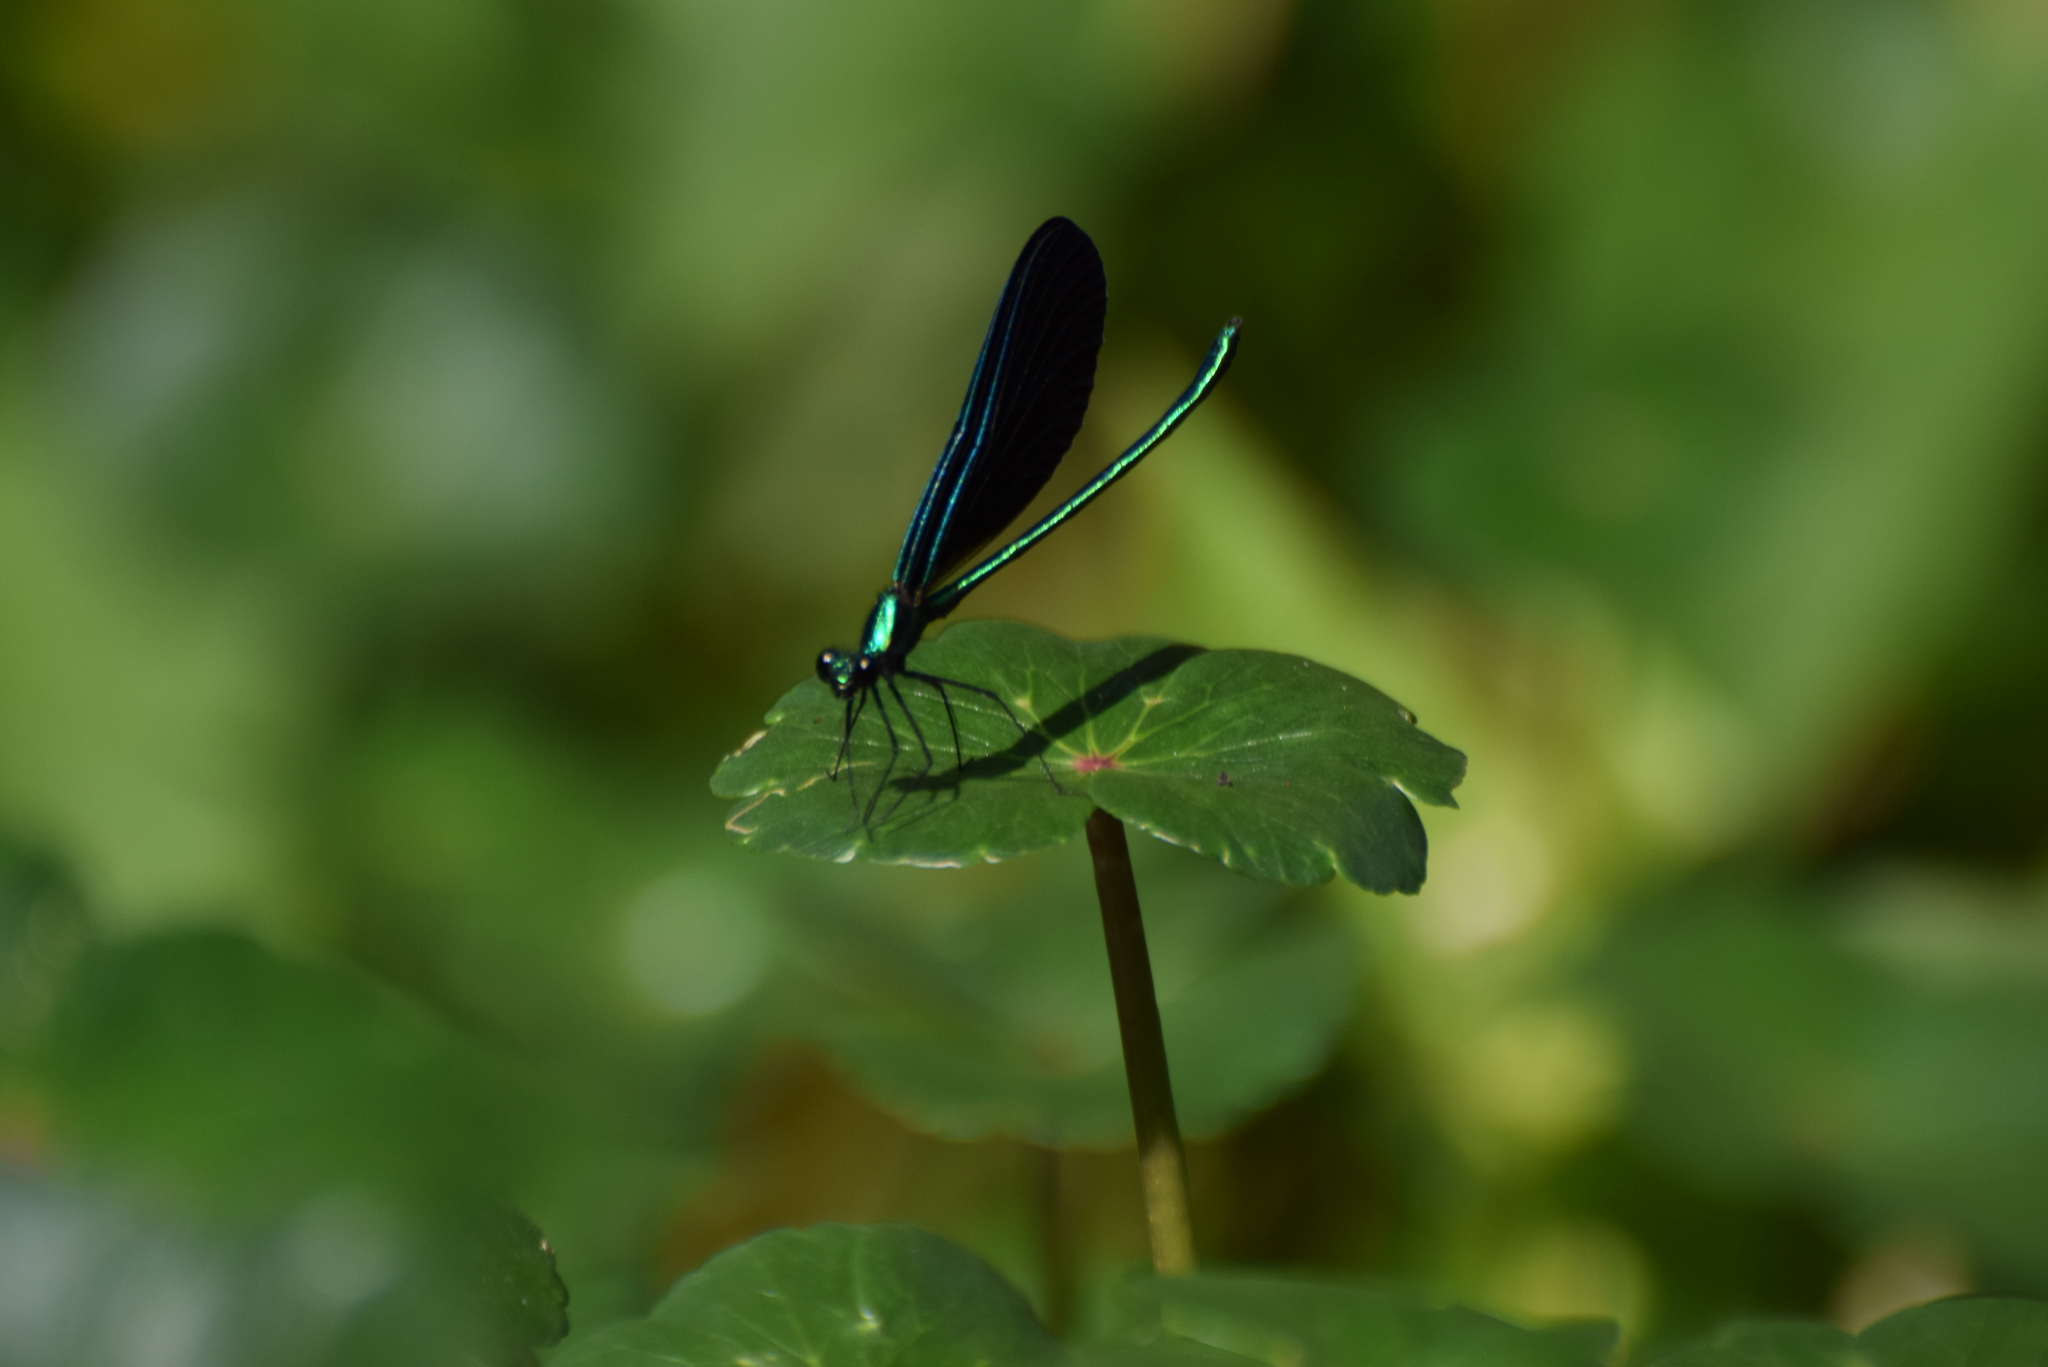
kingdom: Animalia
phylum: Arthropoda
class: Insecta
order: Odonata
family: Calopterygidae
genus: Calopteryx
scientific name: Calopteryx maculata
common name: Ebony jewelwing
